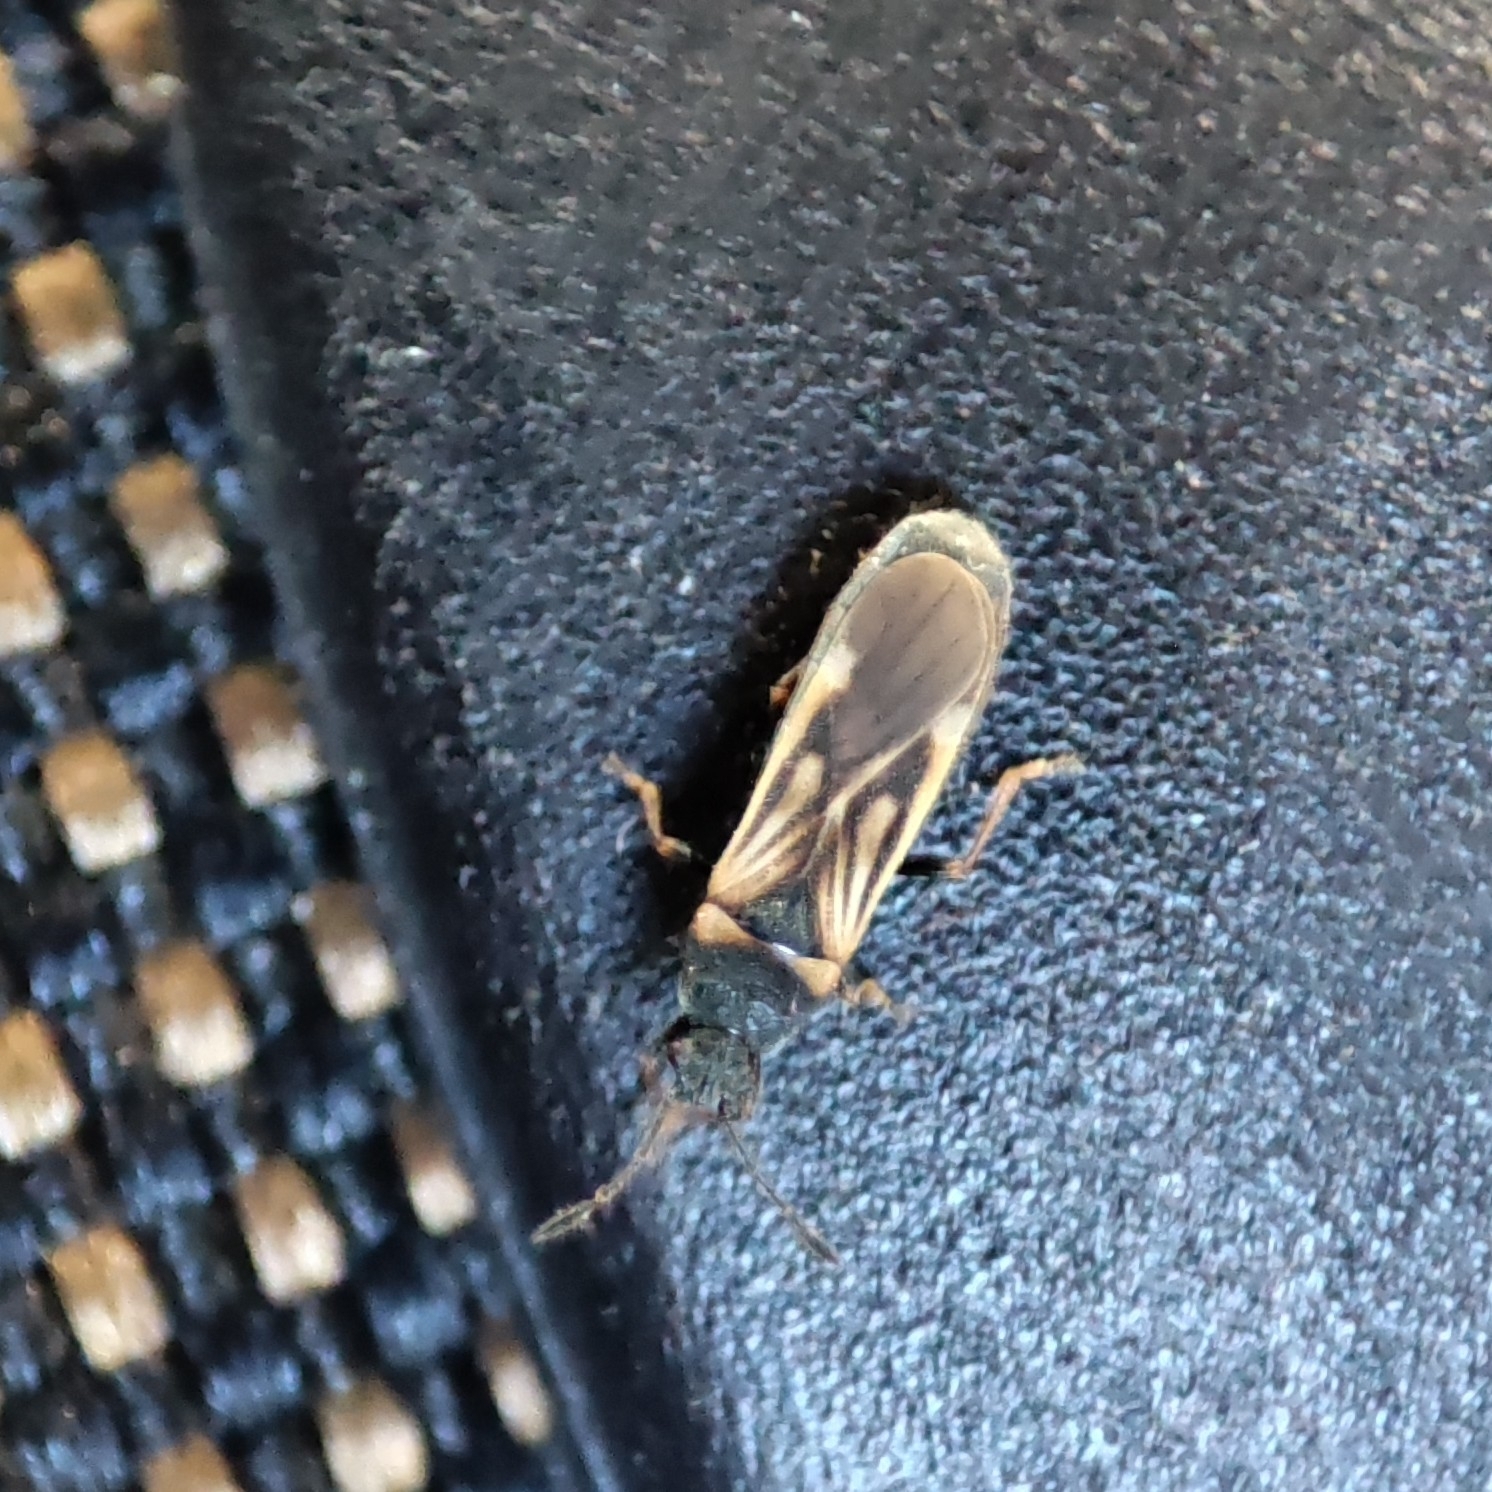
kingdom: Animalia
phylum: Arthropoda
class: Insecta
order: Hemiptera
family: Blissidae
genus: Ischnodemus
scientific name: Ischnodemus sabuleti
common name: European cinchbug
